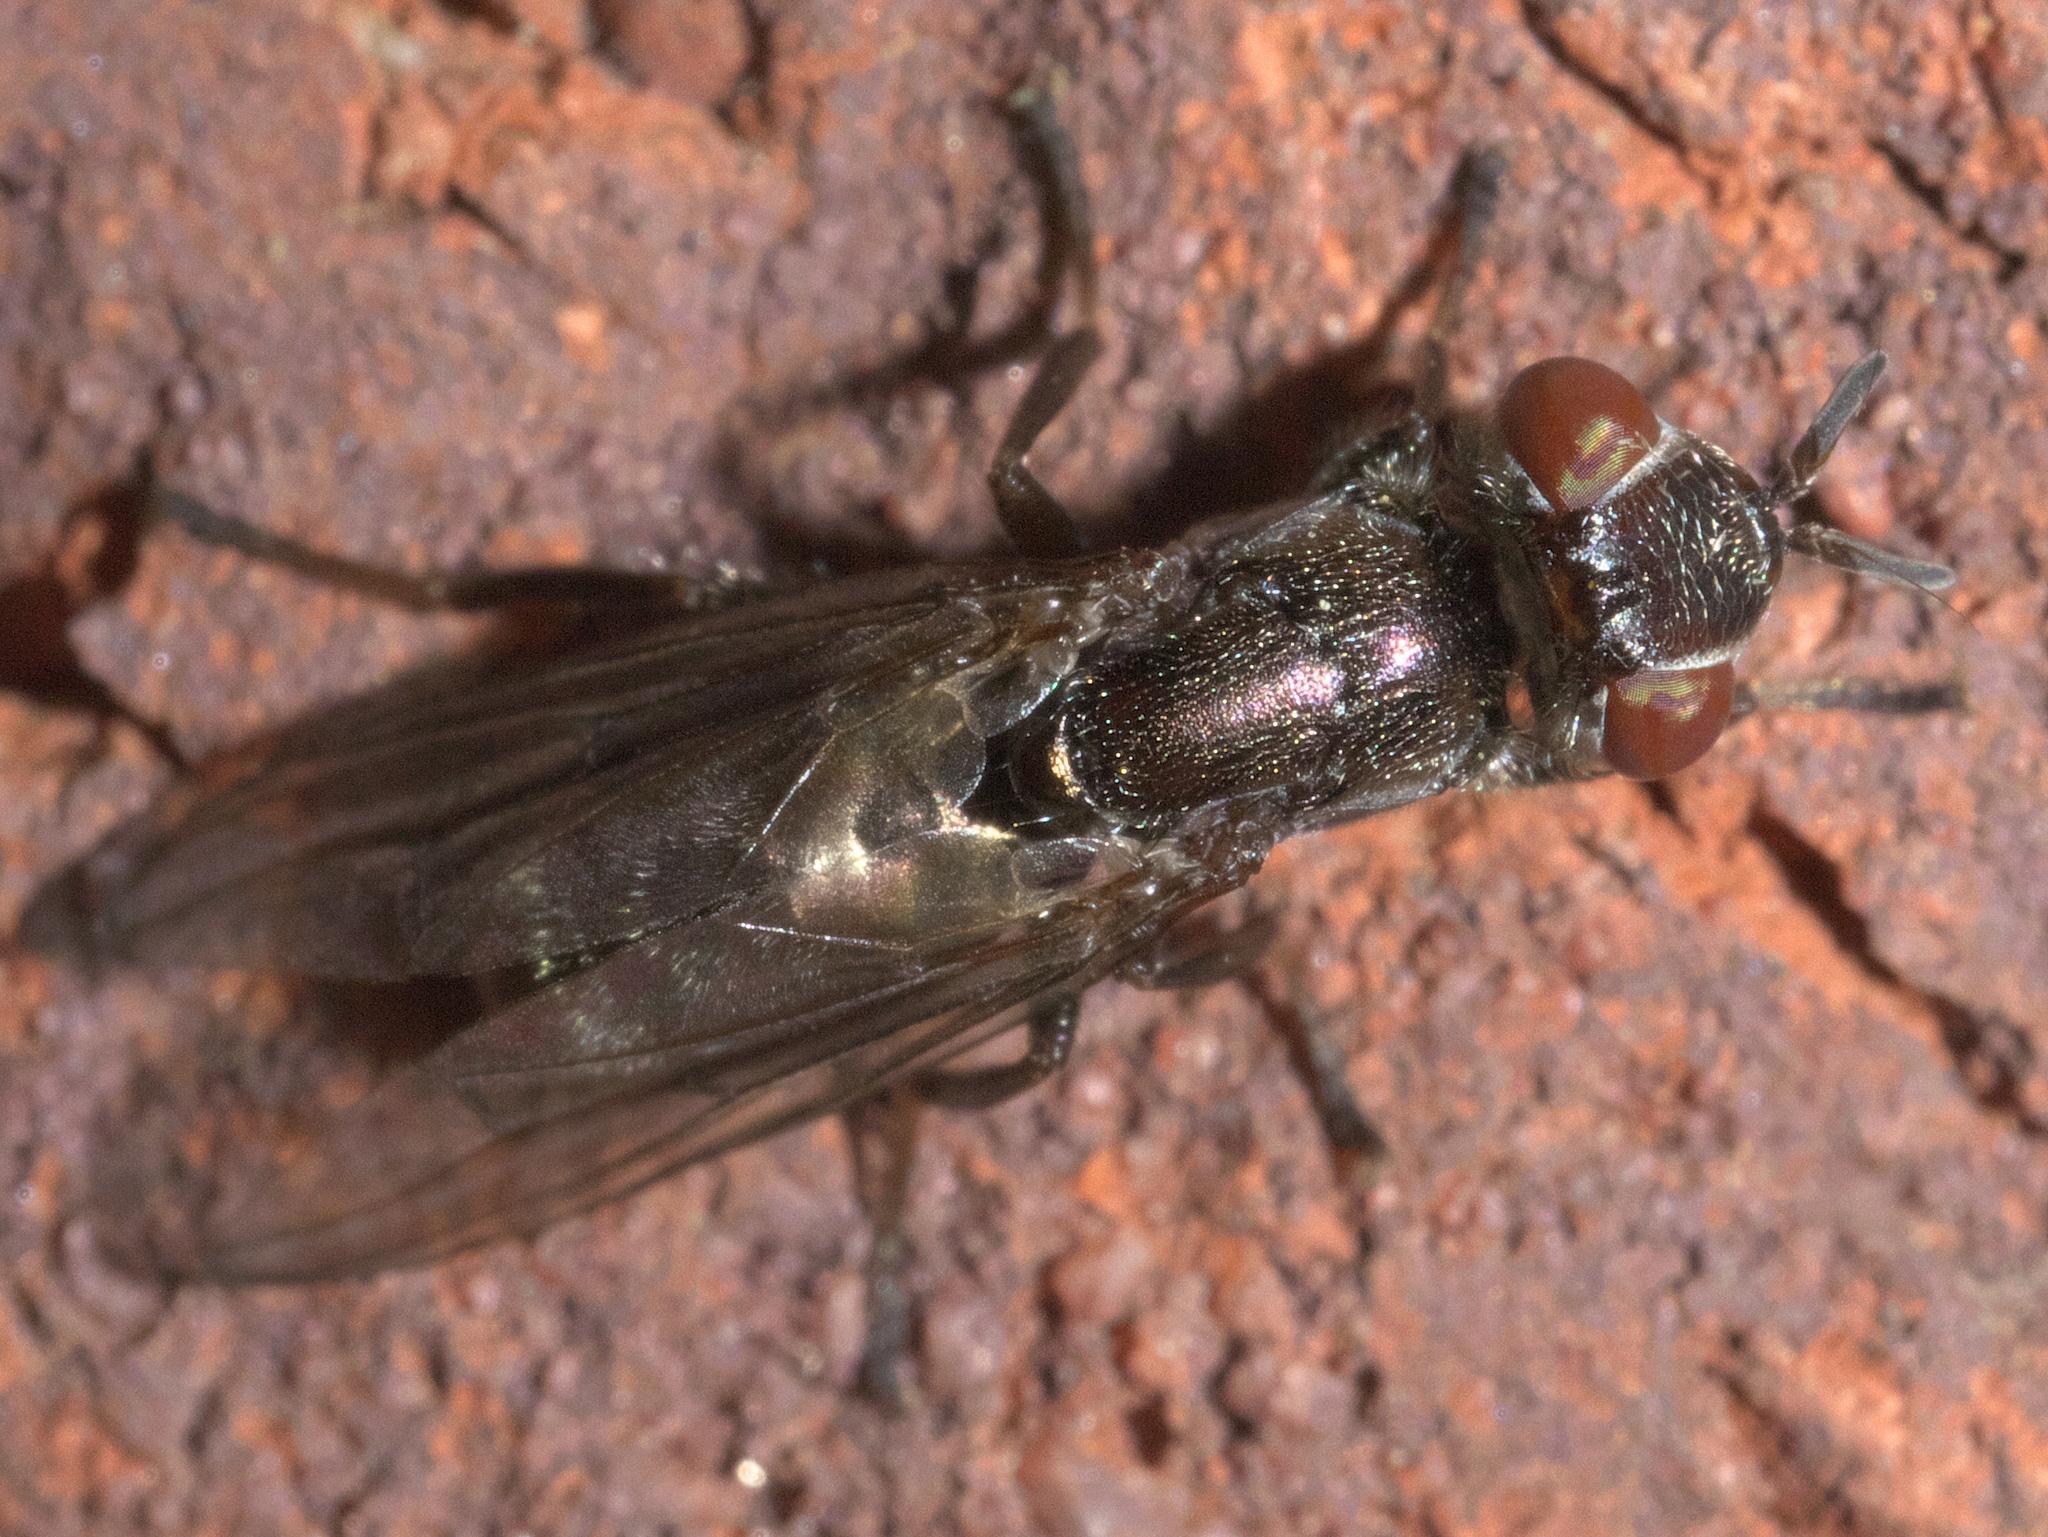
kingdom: Animalia
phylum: Arthropoda
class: Insecta
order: Diptera
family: Platystomatidae
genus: Senopterina
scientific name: Senopterina foxleei
